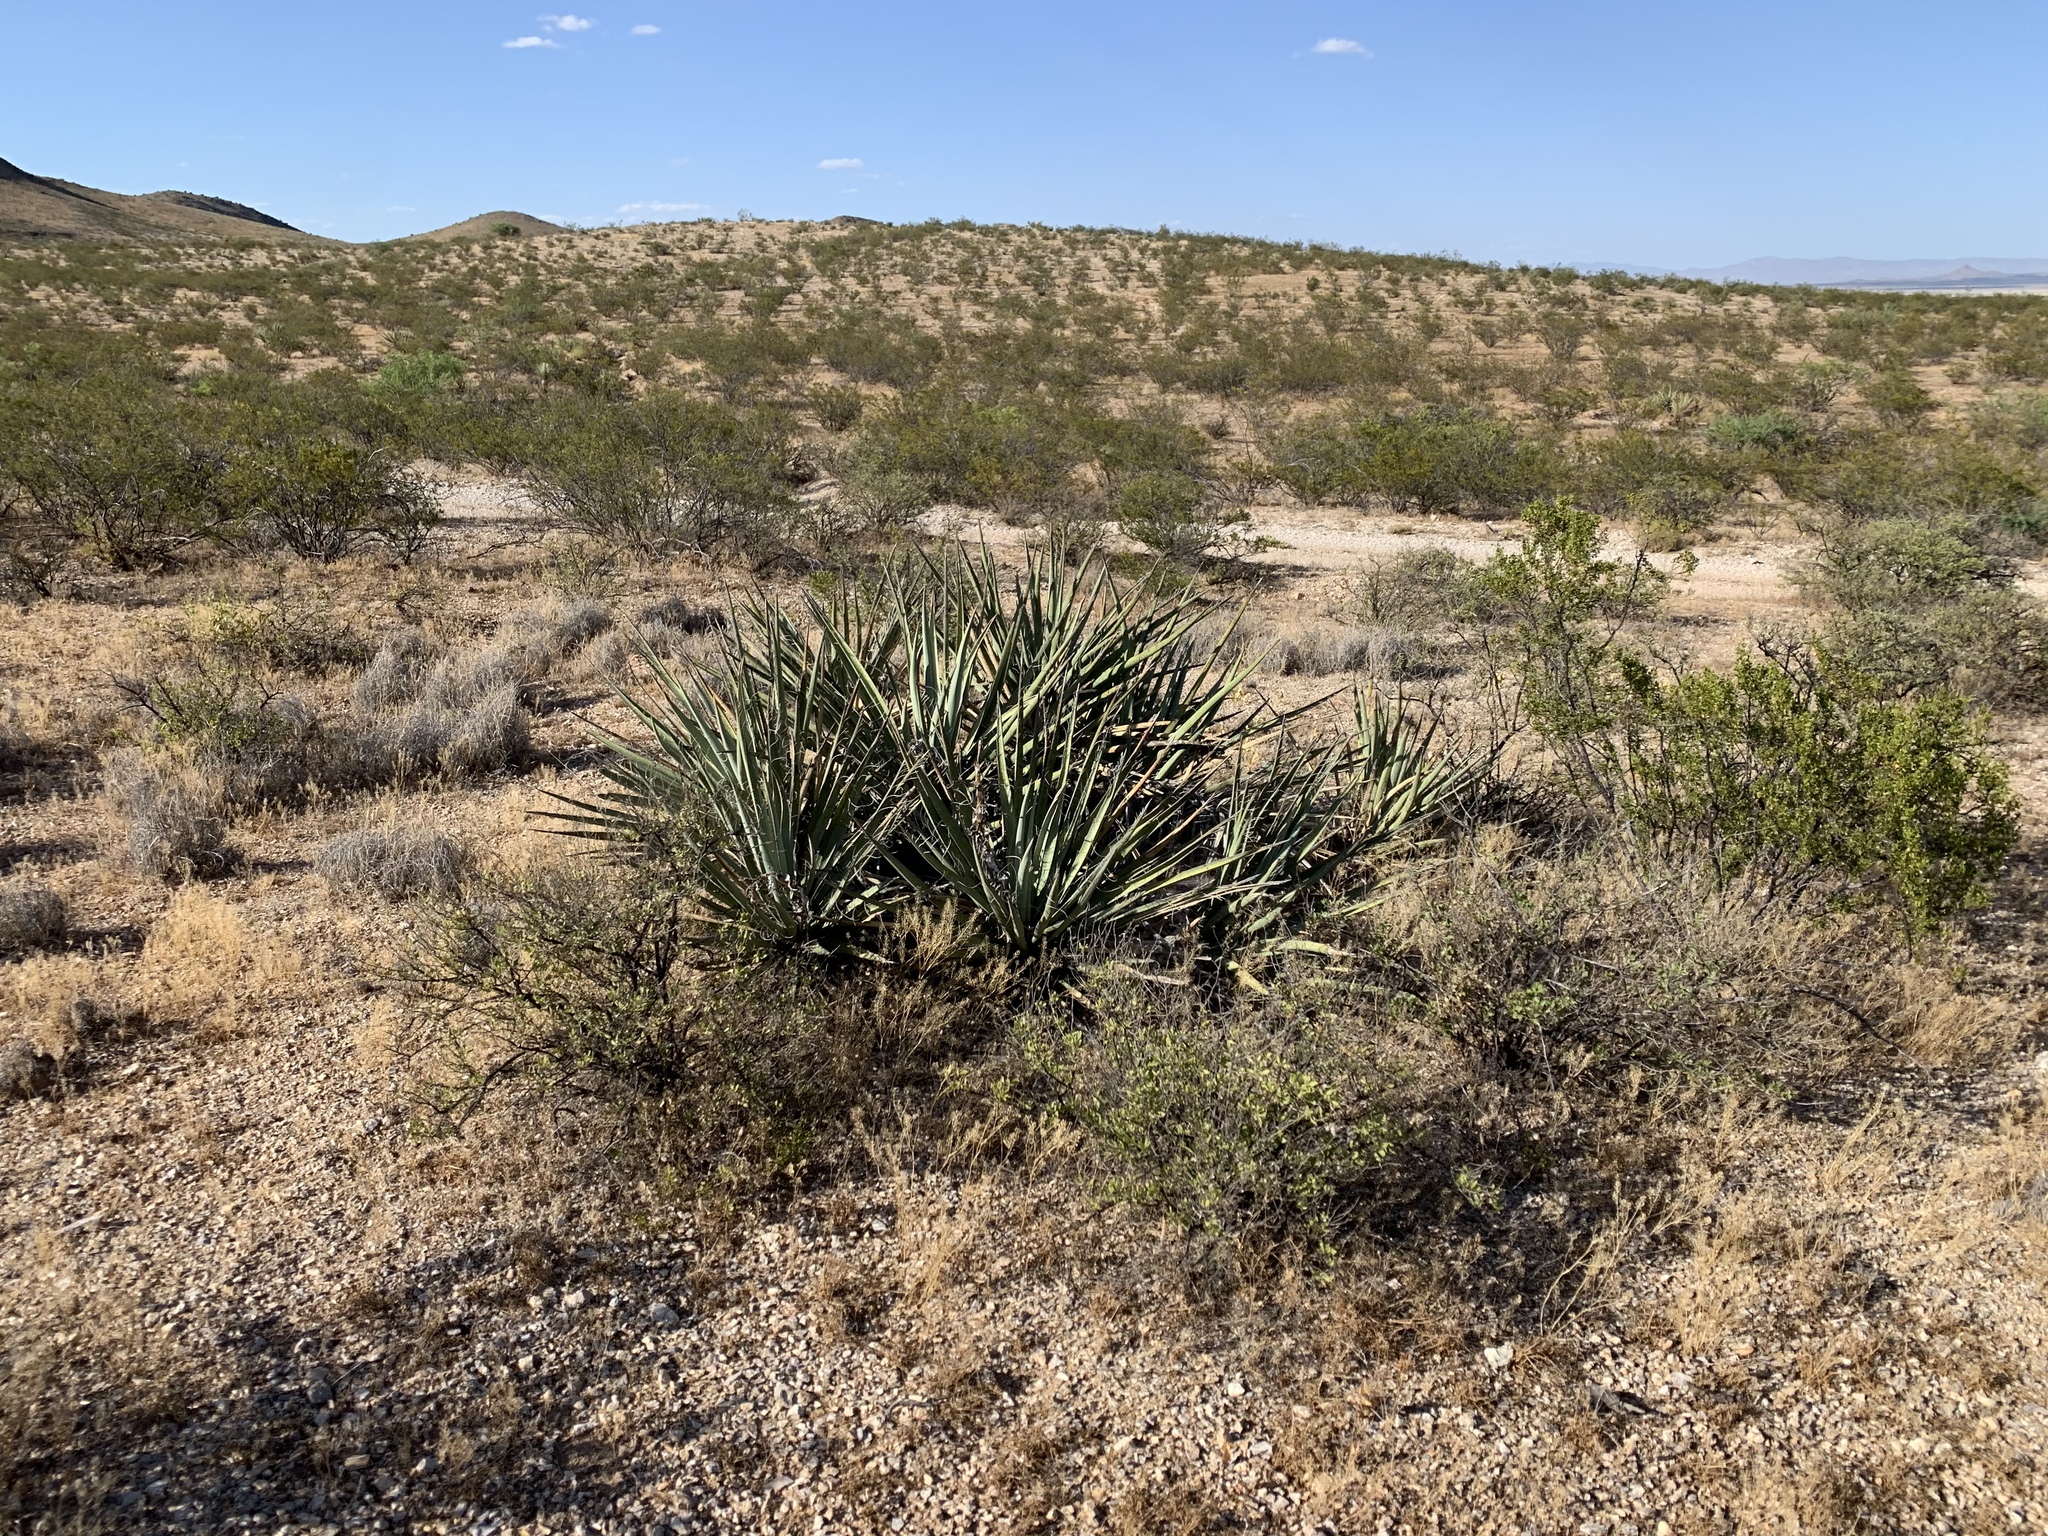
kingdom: Plantae
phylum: Tracheophyta
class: Liliopsida
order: Asparagales
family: Asparagaceae
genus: Yucca
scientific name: Yucca baccata
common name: Banana yucca
